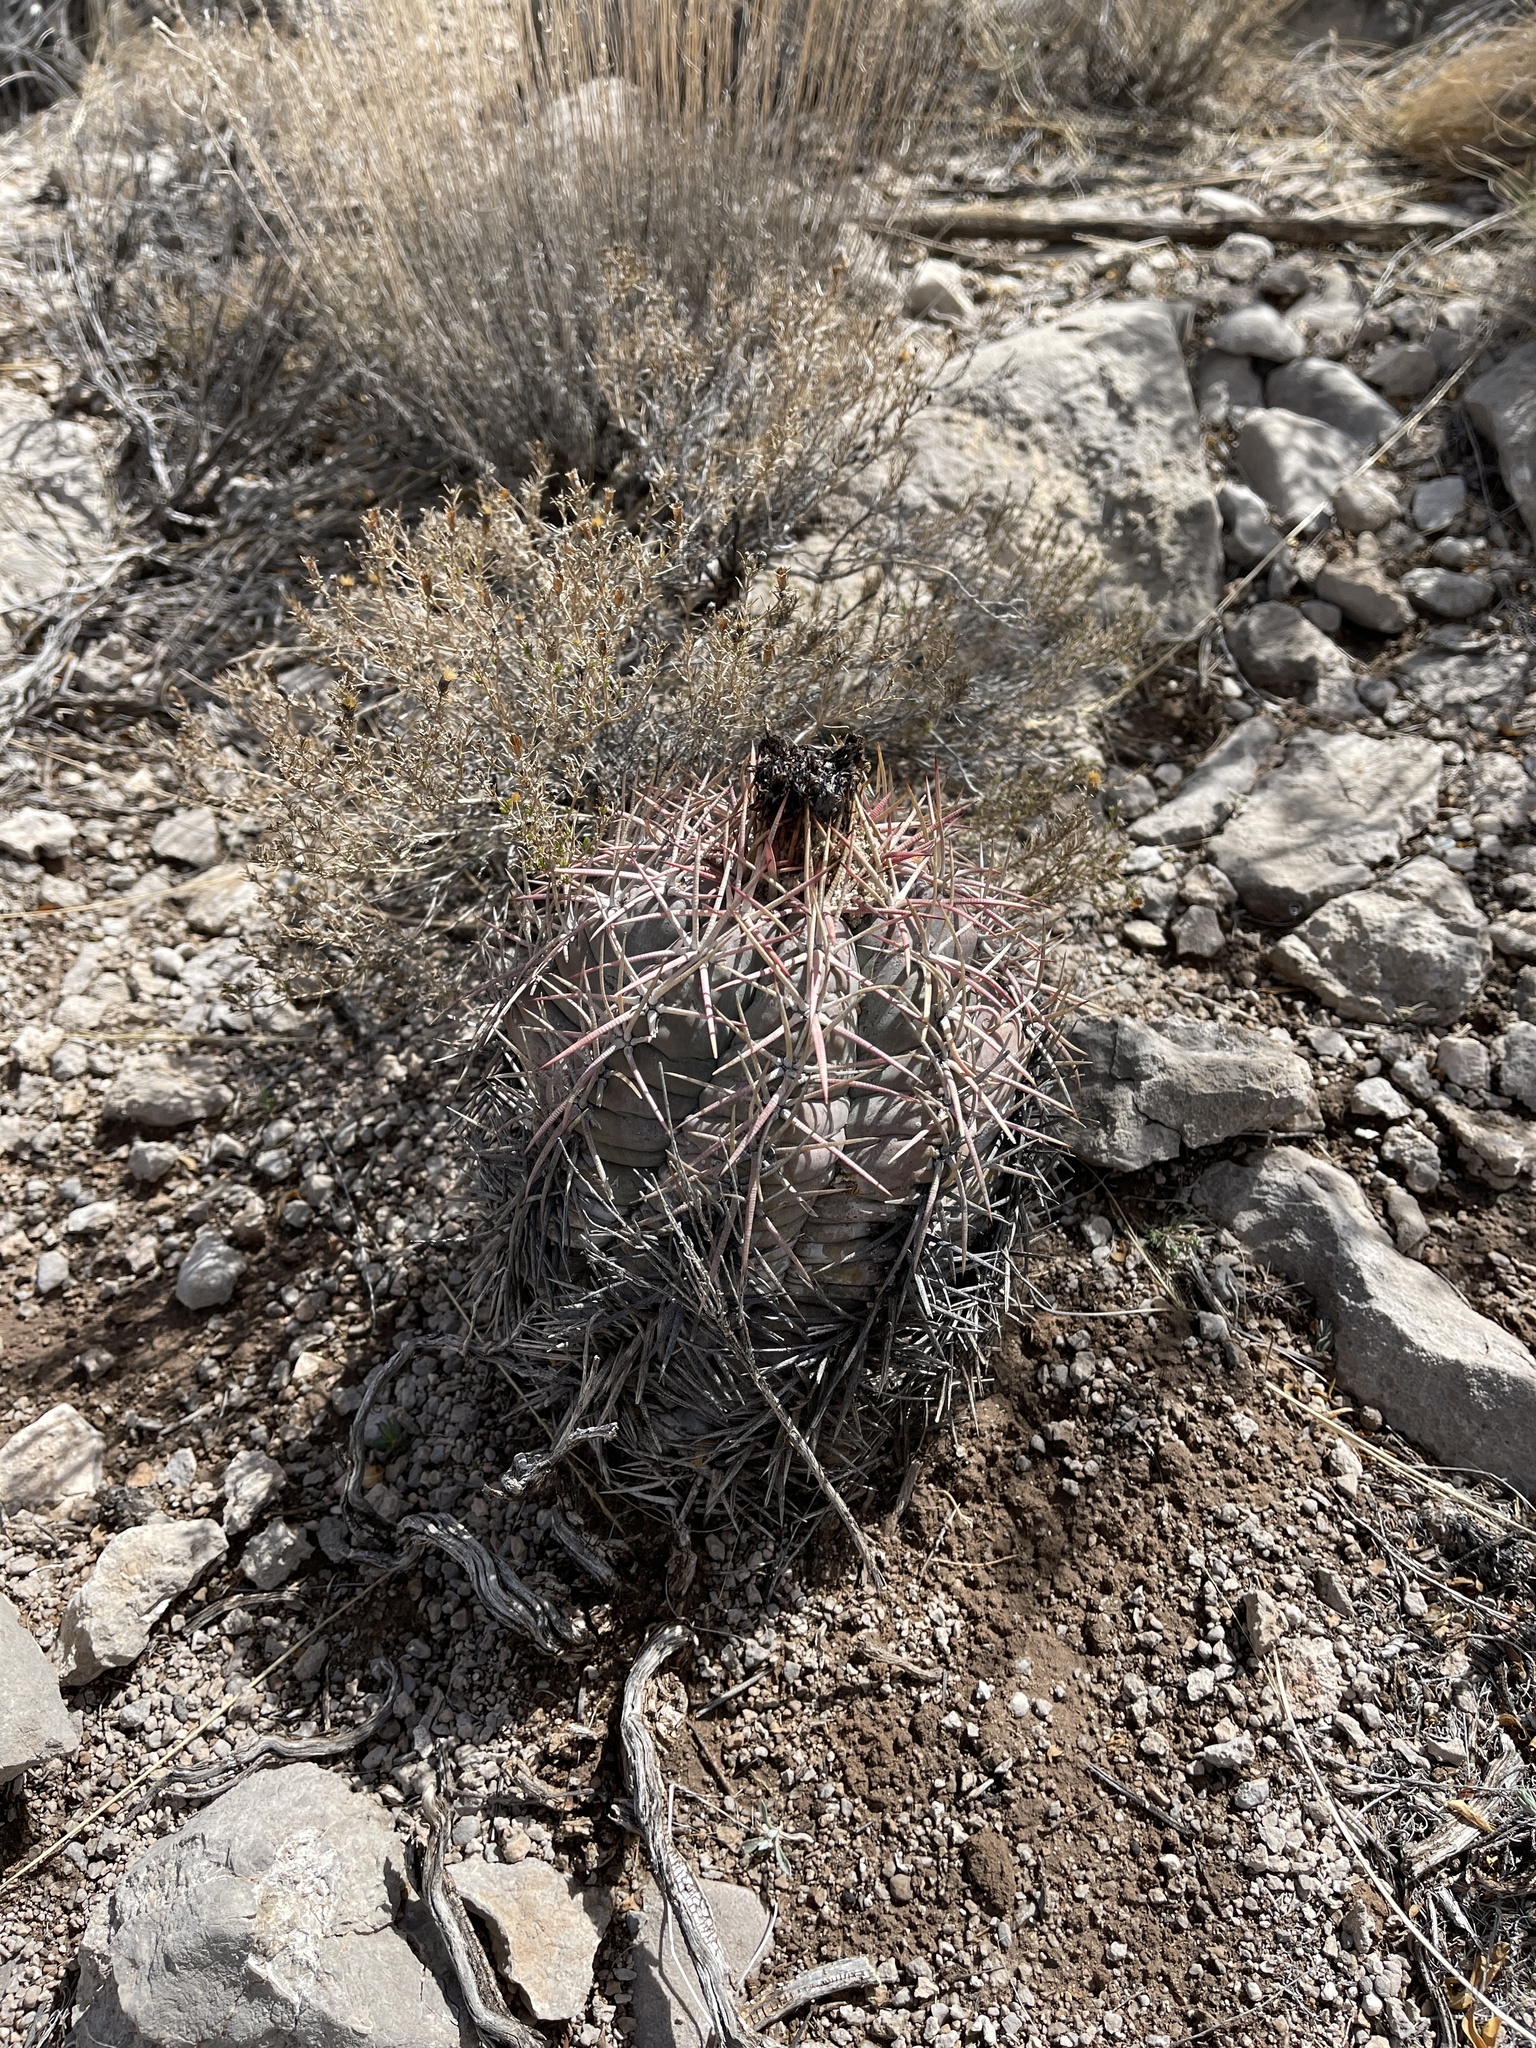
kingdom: Plantae
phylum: Tracheophyta
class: Magnoliopsida
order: Caryophyllales
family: Cactaceae
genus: Echinocactus
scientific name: Echinocactus horizonthalonius
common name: Devilshead
